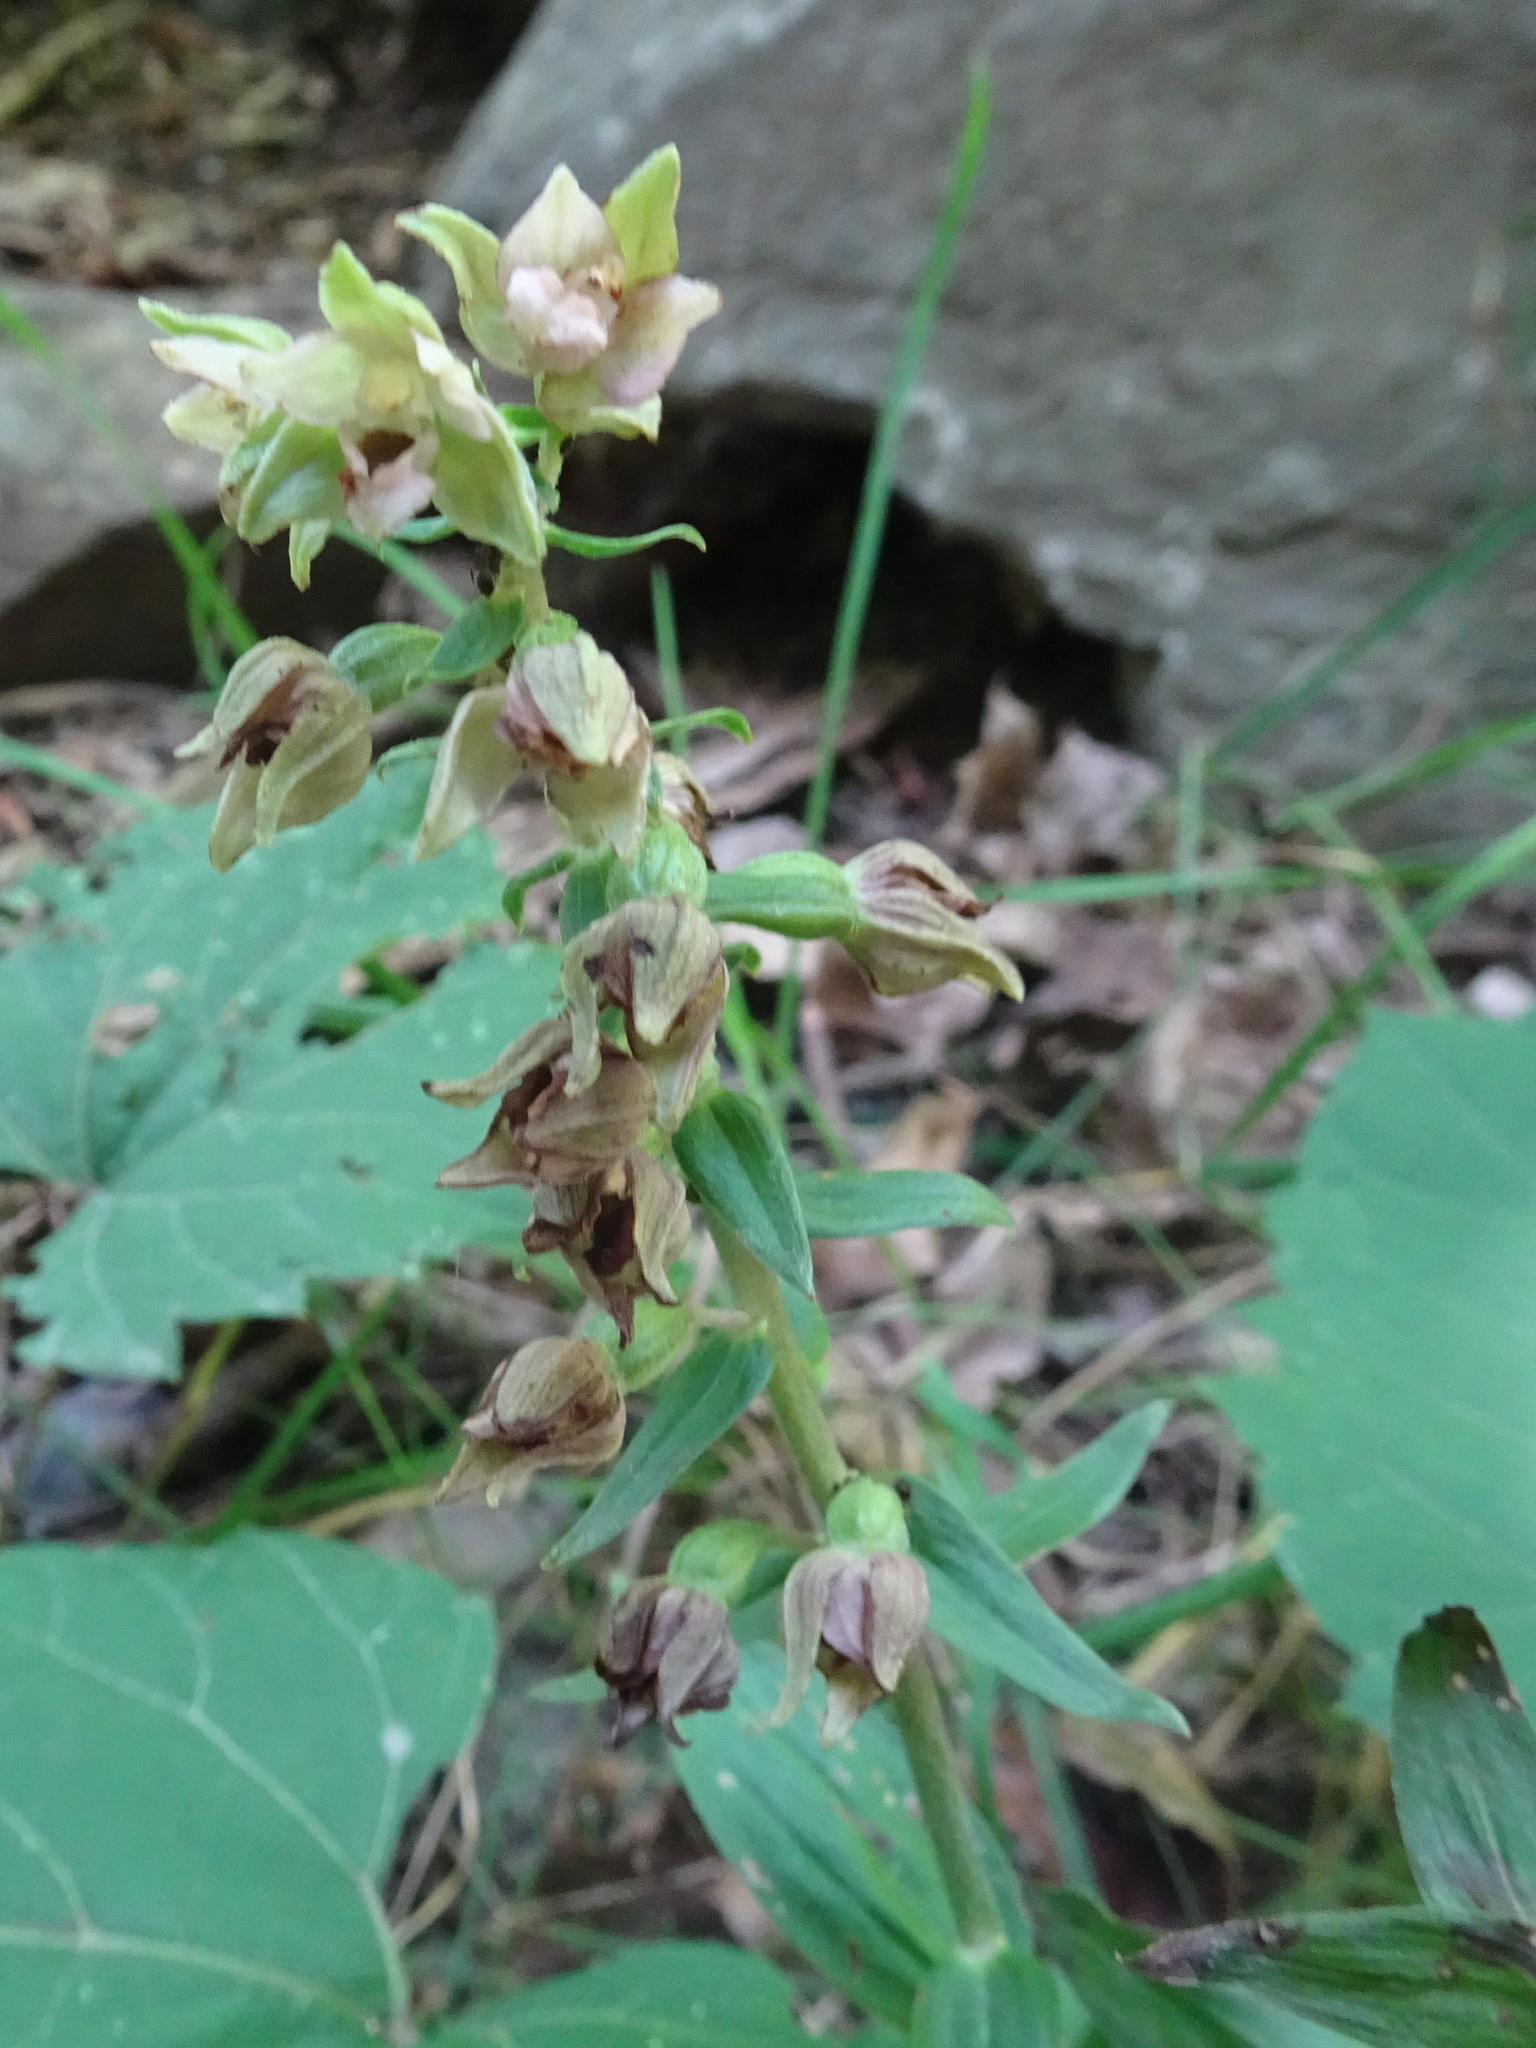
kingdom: Plantae
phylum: Tracheophyta
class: Liliopsida
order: Asparagales
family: Orchidaceae
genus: Epipactis
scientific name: Epipactis helleborine
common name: Broad-leaved helleborine
